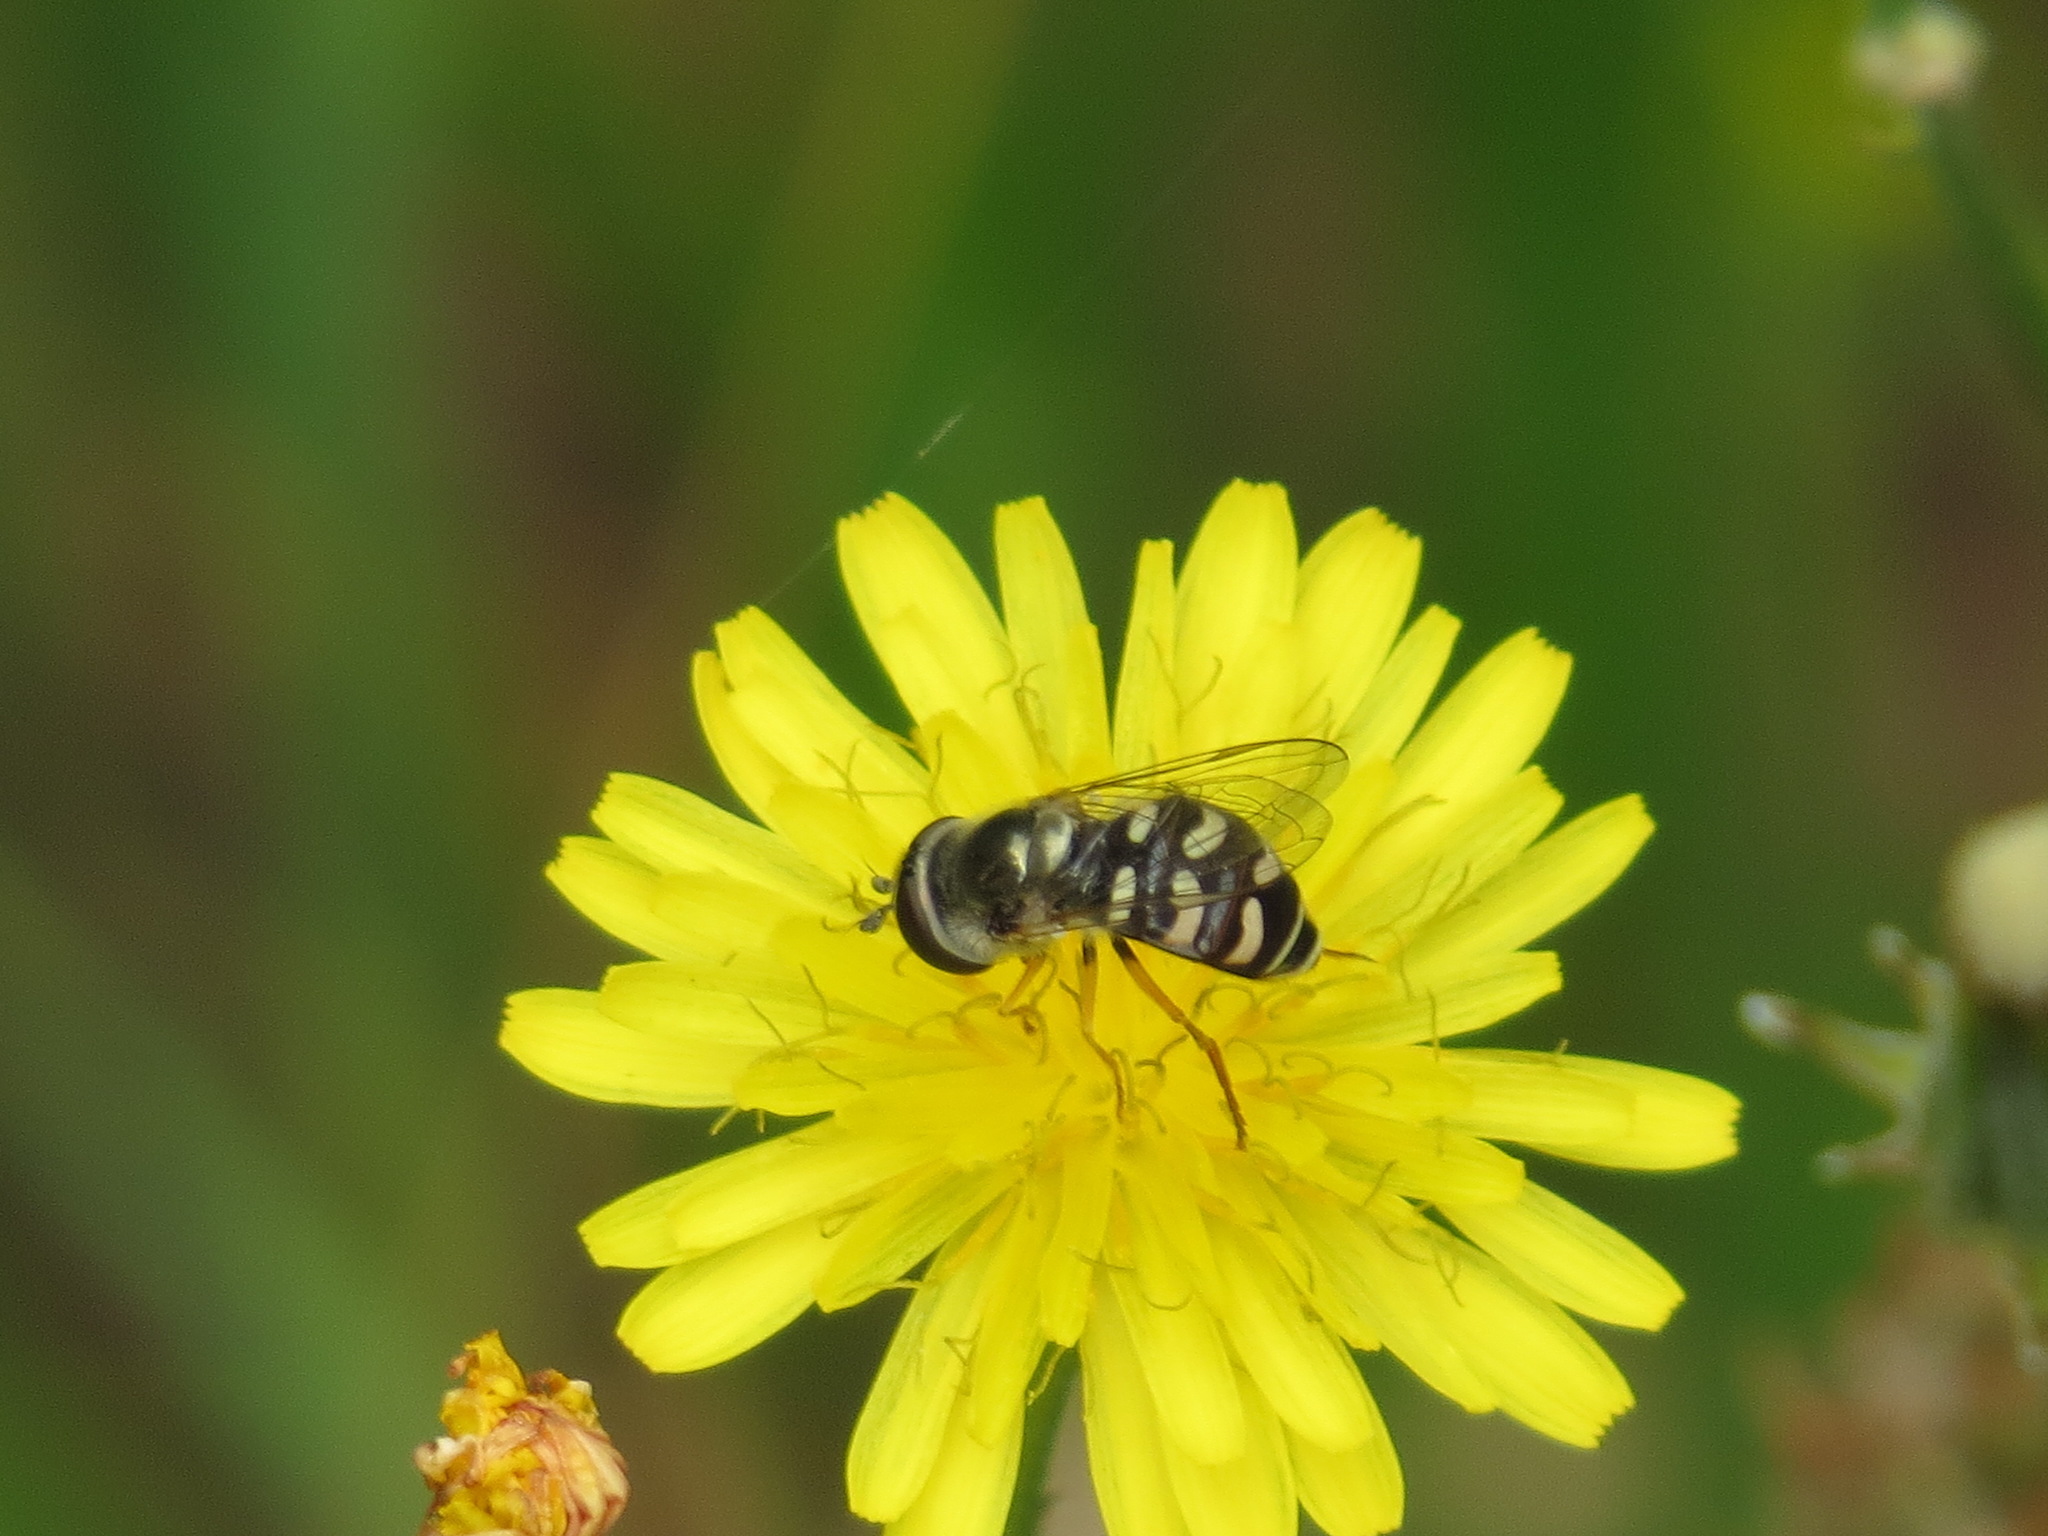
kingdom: Animalia
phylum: Arthropoda
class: Insecta
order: Diptera
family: Syrphidae
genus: Eupeodes
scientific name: Eupeodes volucris
